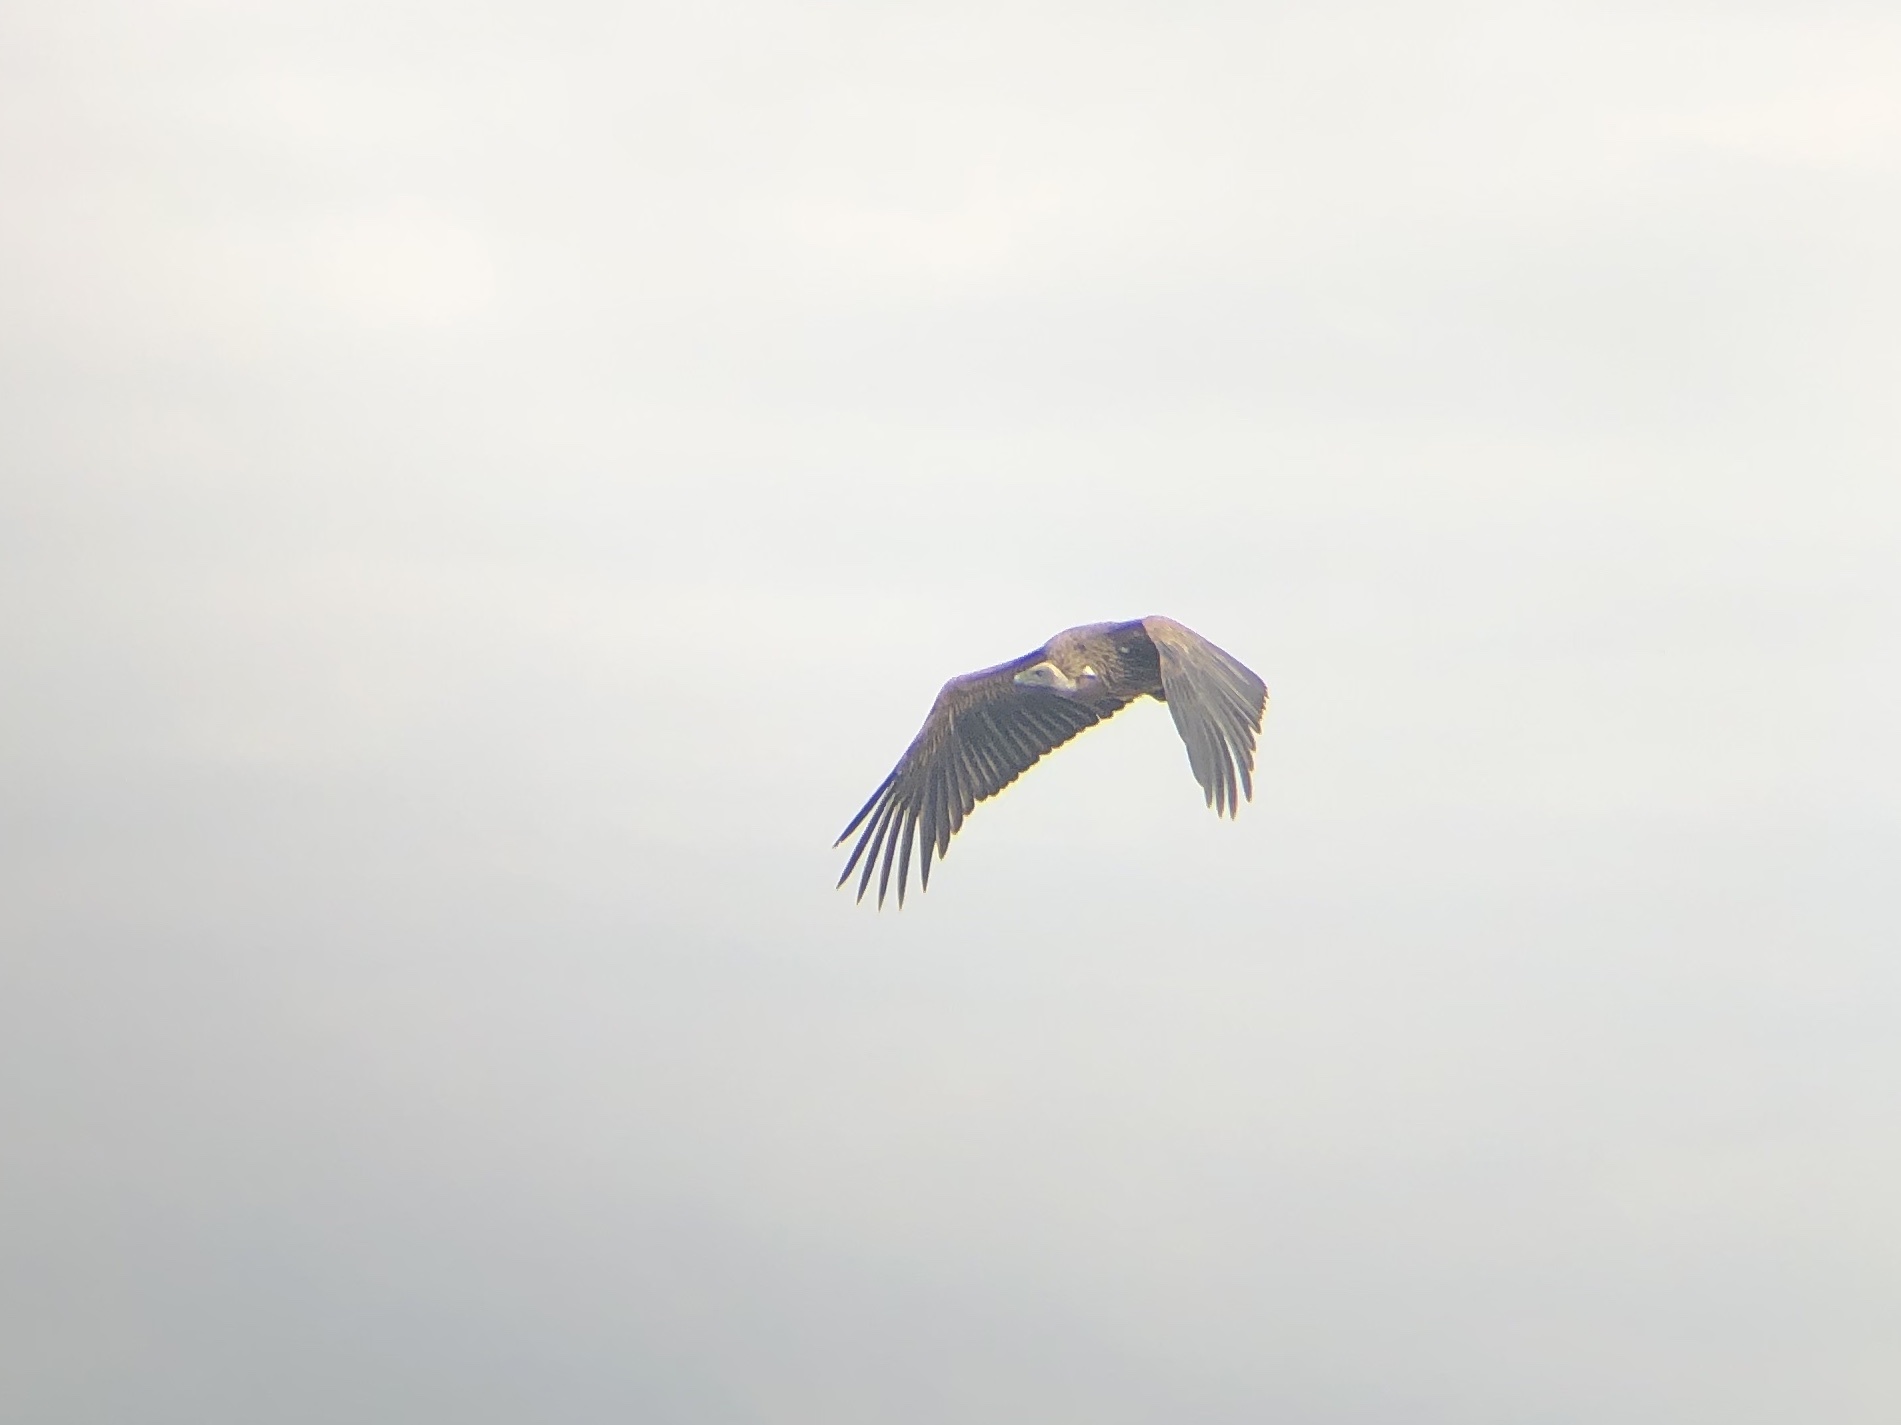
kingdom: Animalia
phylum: Chordata
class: Aves
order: Accipitriformes
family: Accipitridae
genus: Gyps
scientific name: Gyps africanus
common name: White-backed vulture
